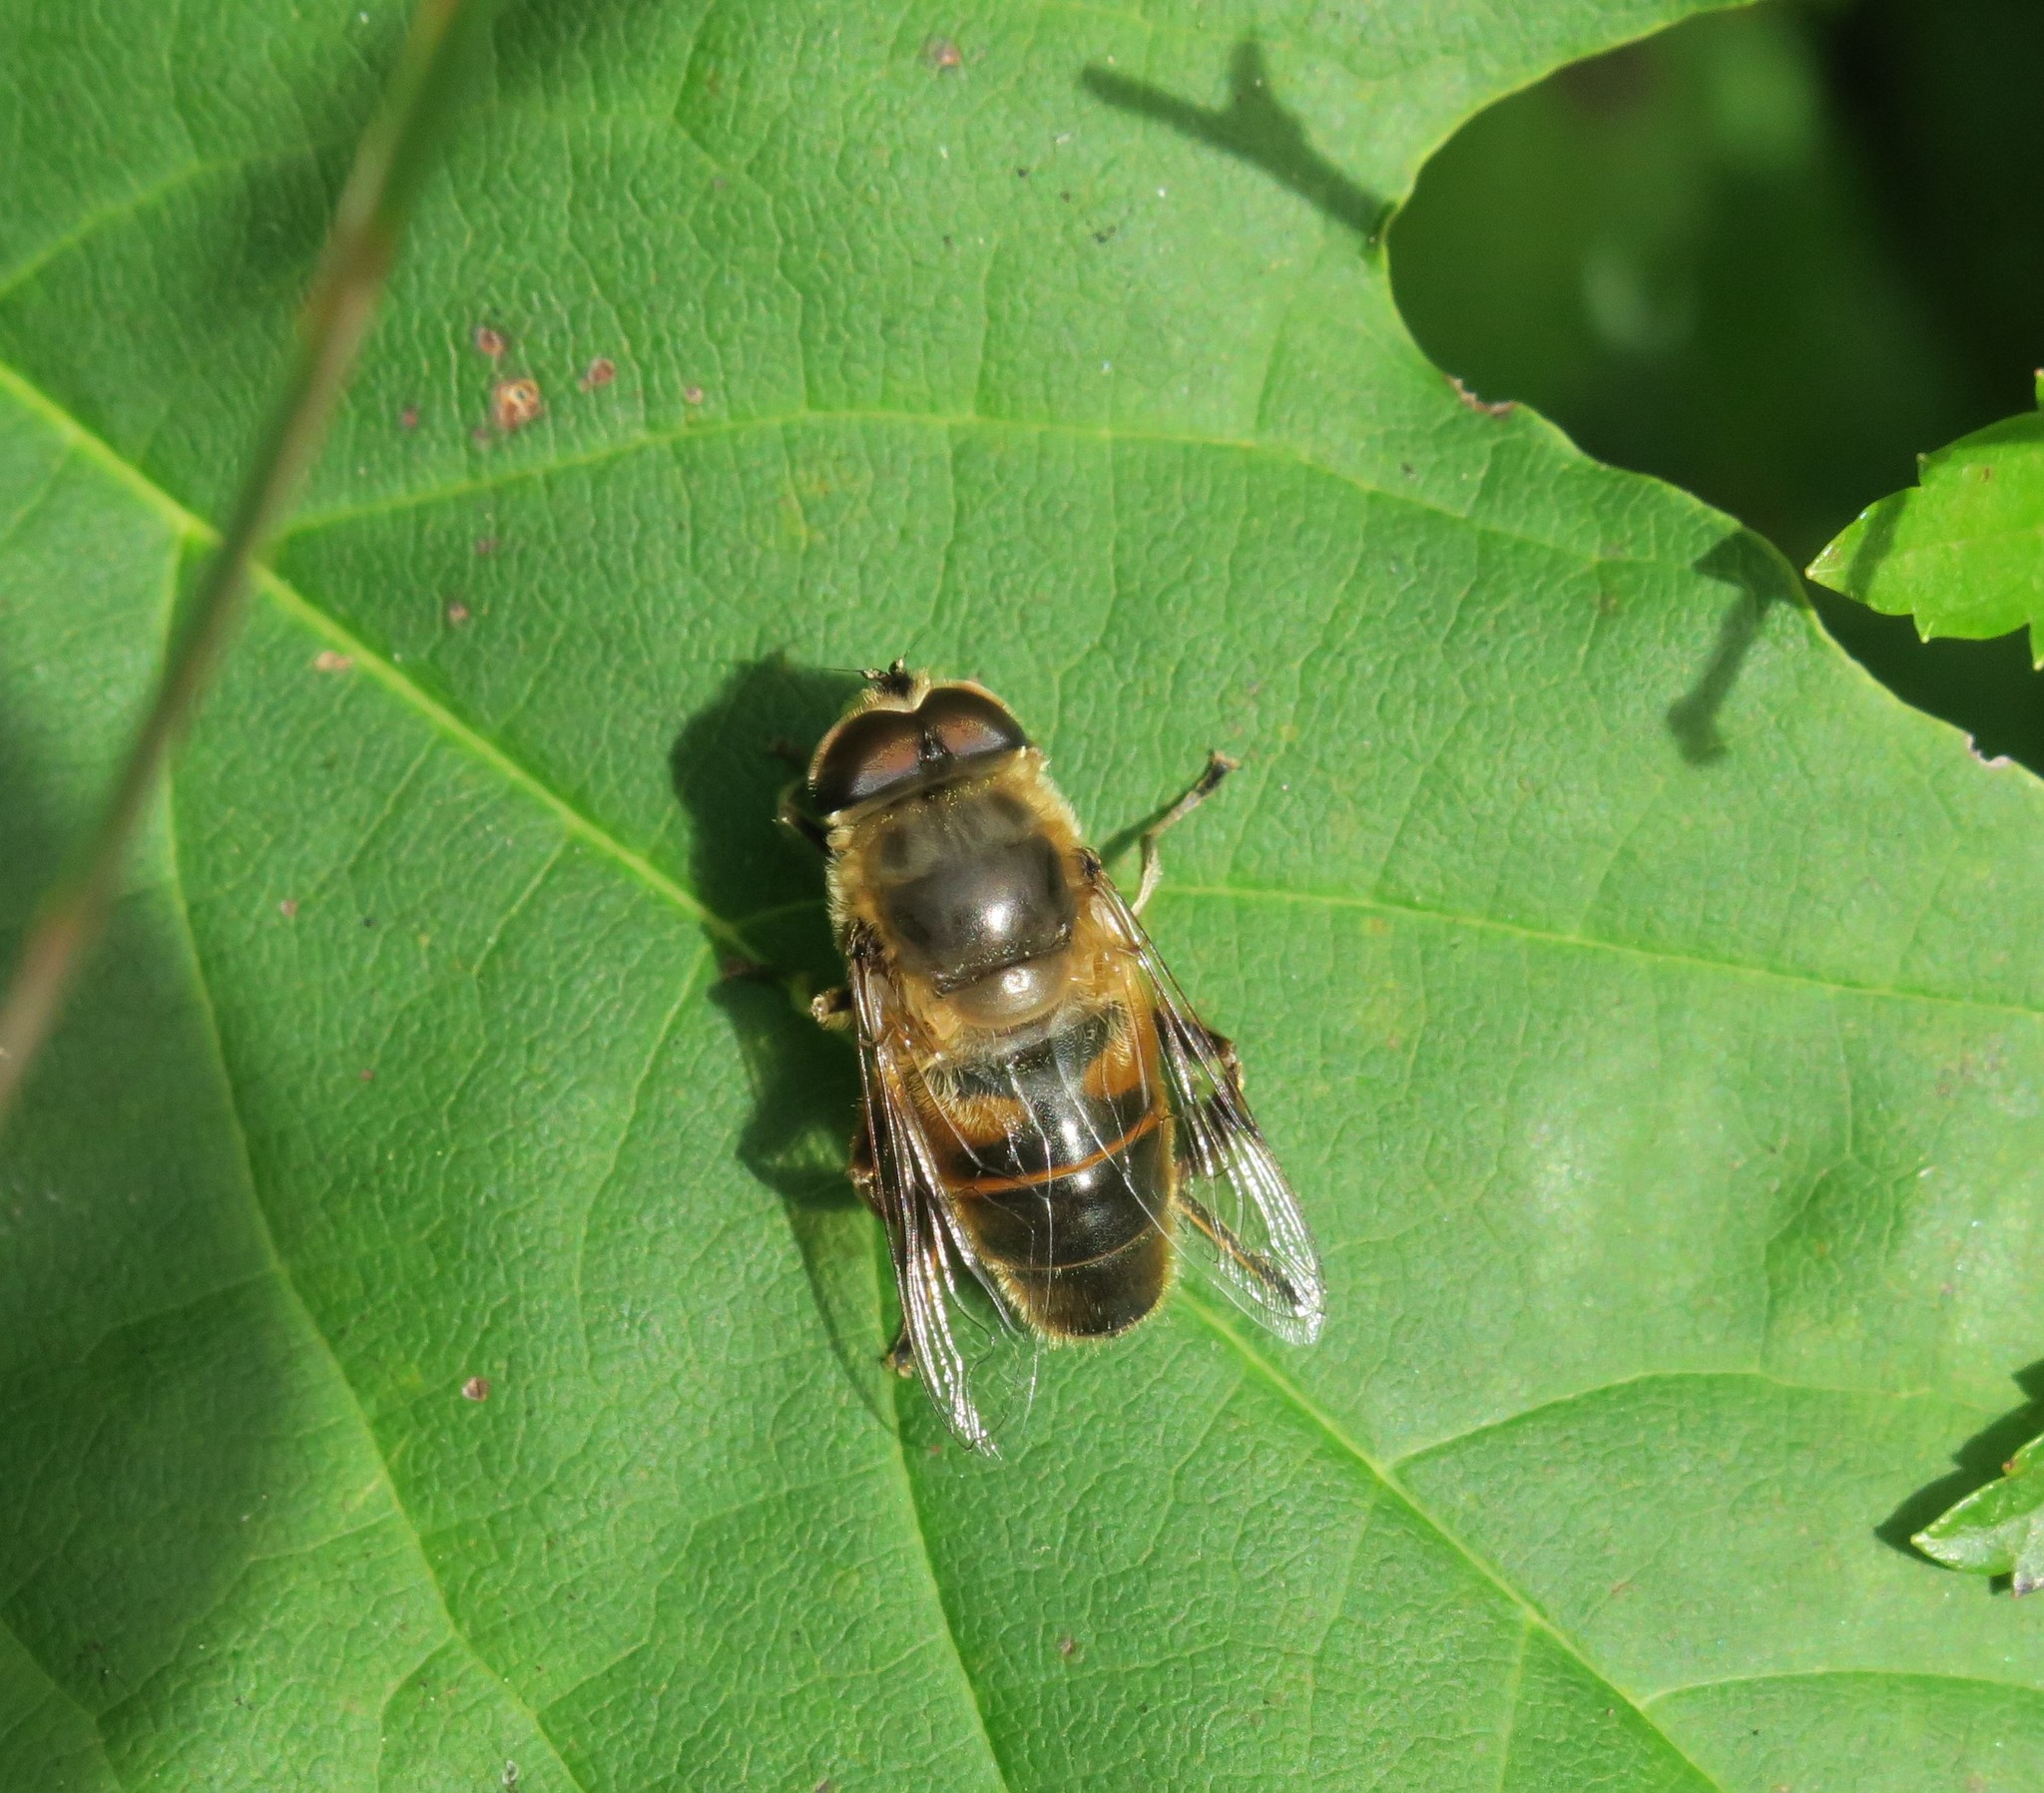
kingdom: Animalia
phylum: Arthropoda
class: Insecta
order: Diptera
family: Syrphidae
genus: Eristalis
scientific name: Eristalis tenax
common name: Drone fly
